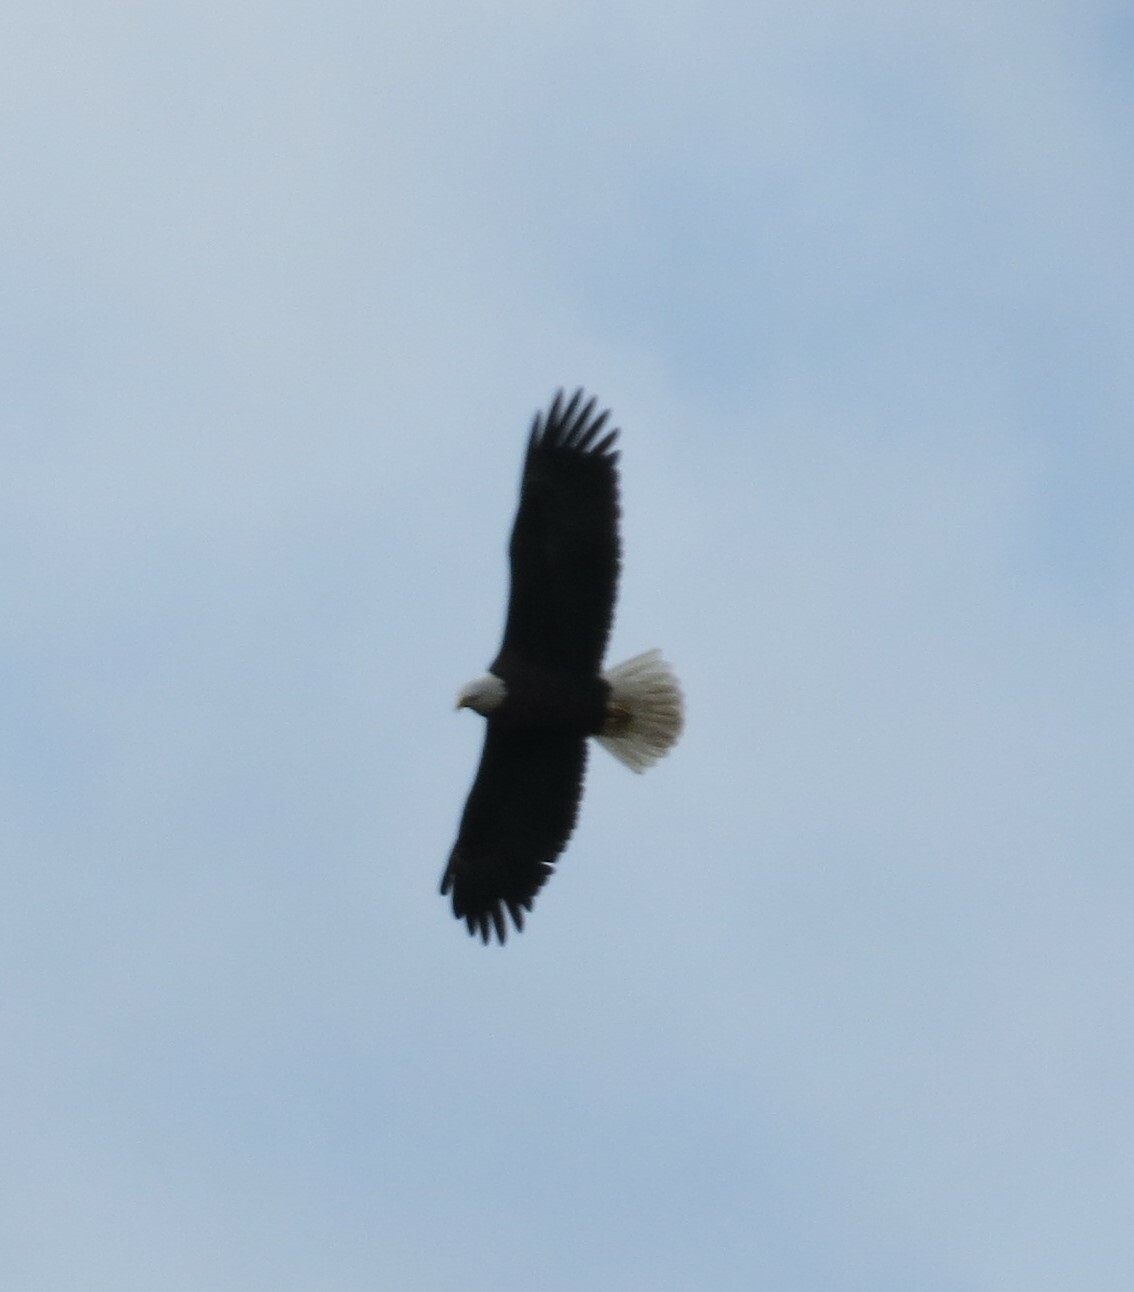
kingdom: Animalia
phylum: Chordata
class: Aves
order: Accipitriformes
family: Accipitridae
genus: Haliaeetus
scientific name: Haliaeetus leucocephalus
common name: Bald eagle
